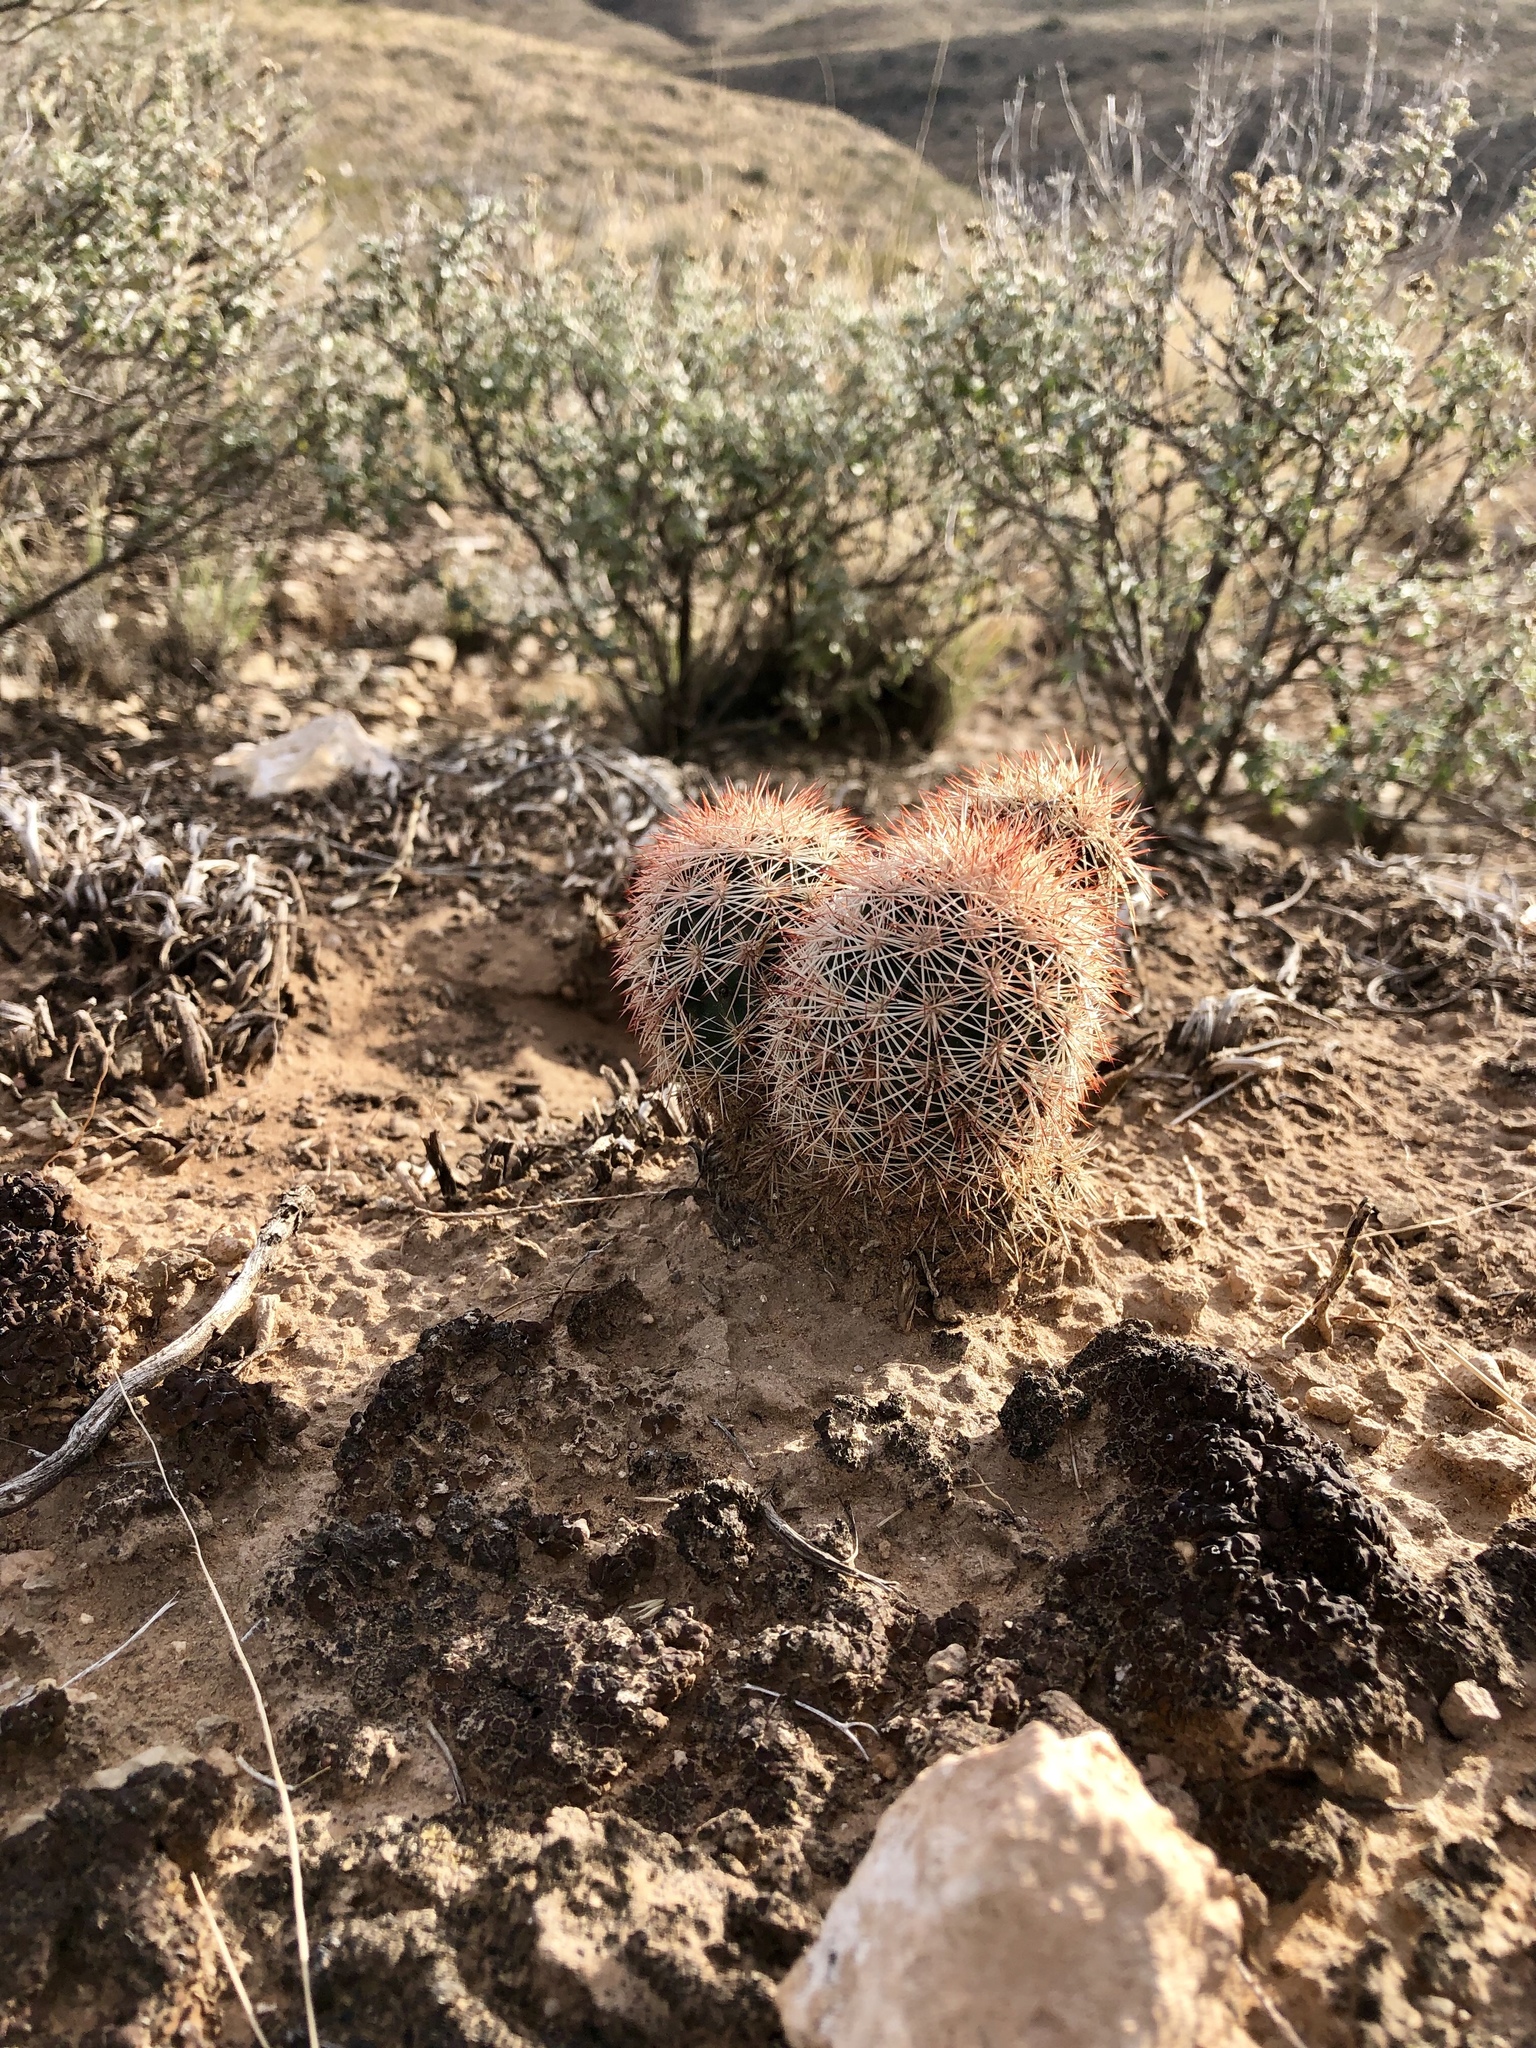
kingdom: Plantae
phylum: Tracheophyta
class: Magnoliopsida
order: Caryophyllales
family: Cactaceae
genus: Echinocereus
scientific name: Echinocereus dasyacanthus
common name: Spiny hedgehog cactus
